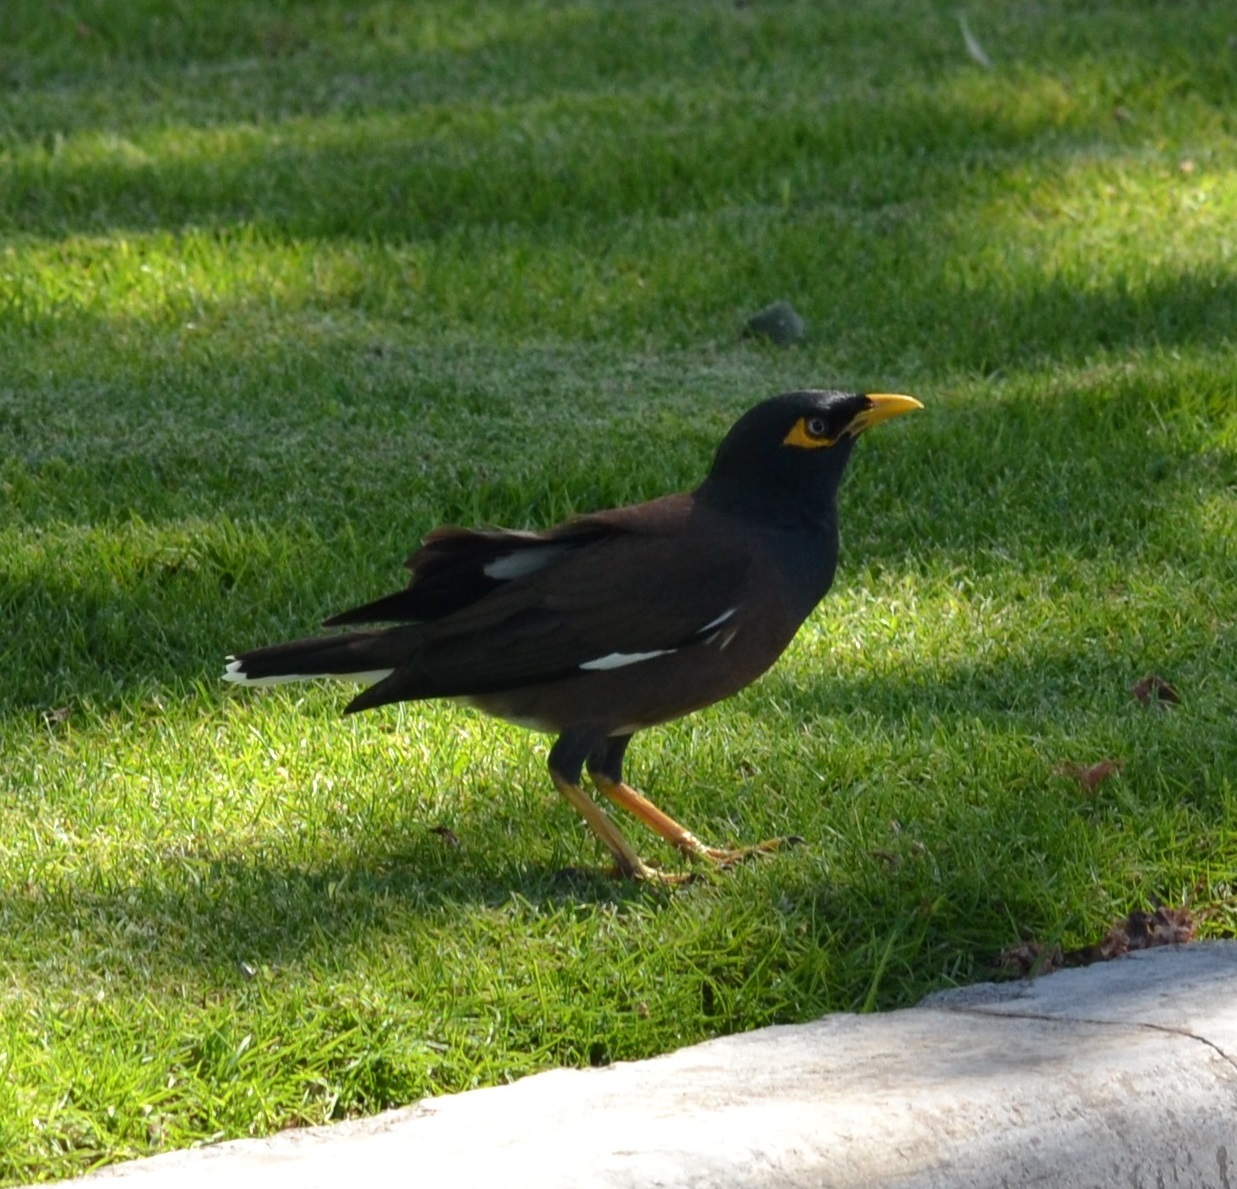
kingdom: Animalia
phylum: Chordata
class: Aves
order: Passeriformes
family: Sturnidae
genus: Acridotheres
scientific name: Acridotheres tristis
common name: Common myna
